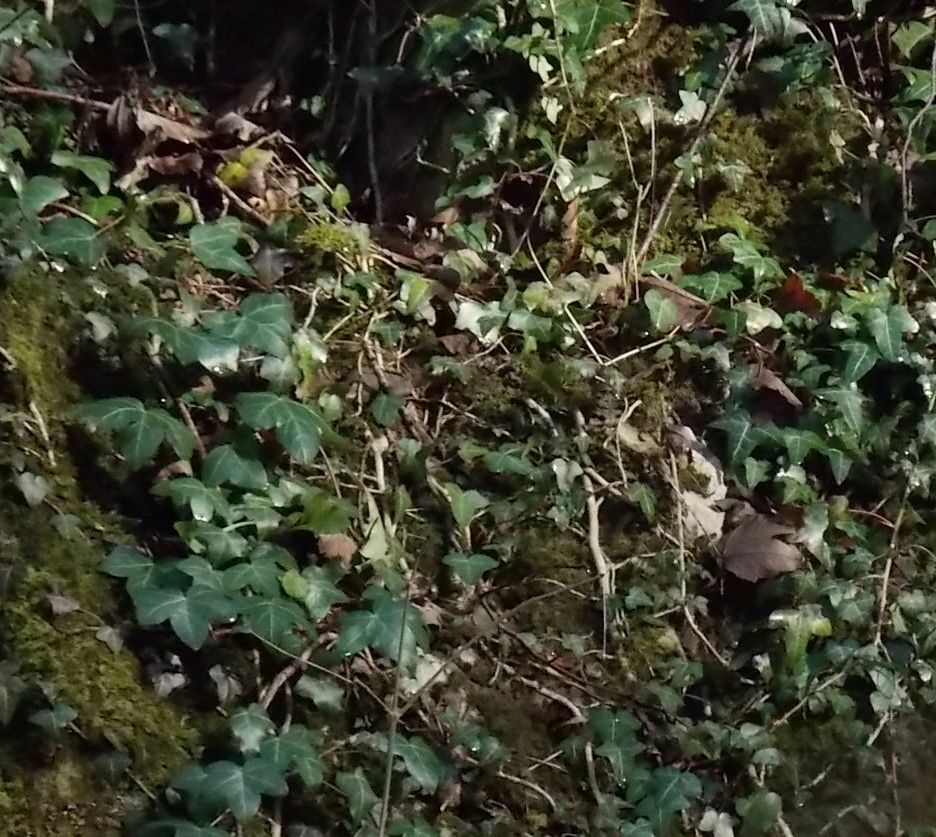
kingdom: Plantae
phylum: Tracheophyta
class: Magnoliopsida
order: Apiales
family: Araliaceae
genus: Hedera
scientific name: Hedera helix
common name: Ivy
